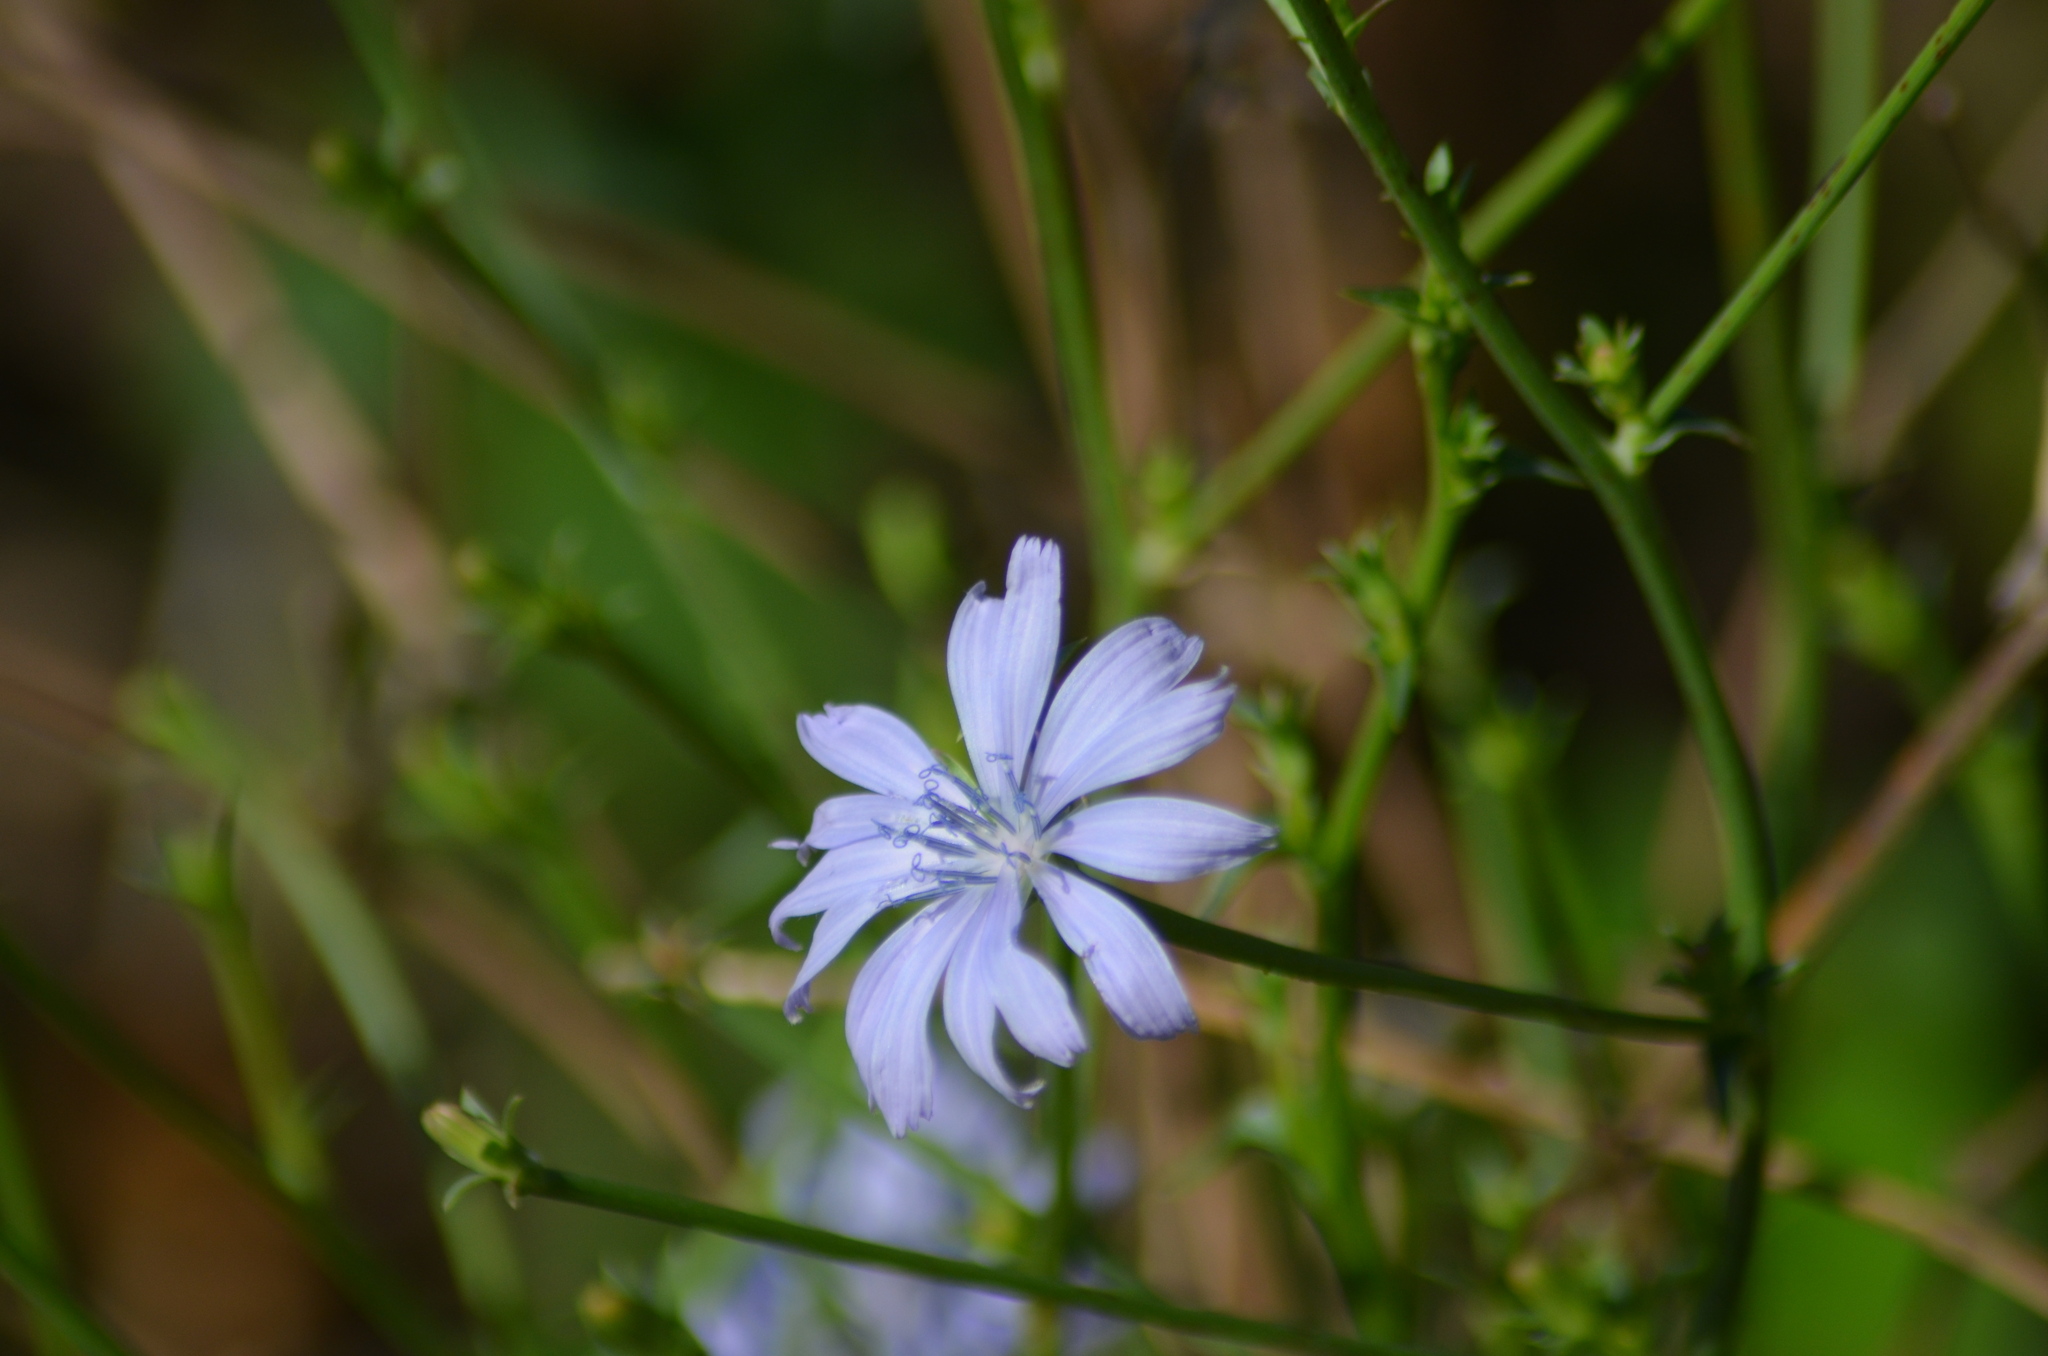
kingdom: Plantae
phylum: Tracheophyta
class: Magnoliopsida
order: Asterales
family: Asteraceae
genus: Cichorium
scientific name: Cichorium intybus
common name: Chicory
